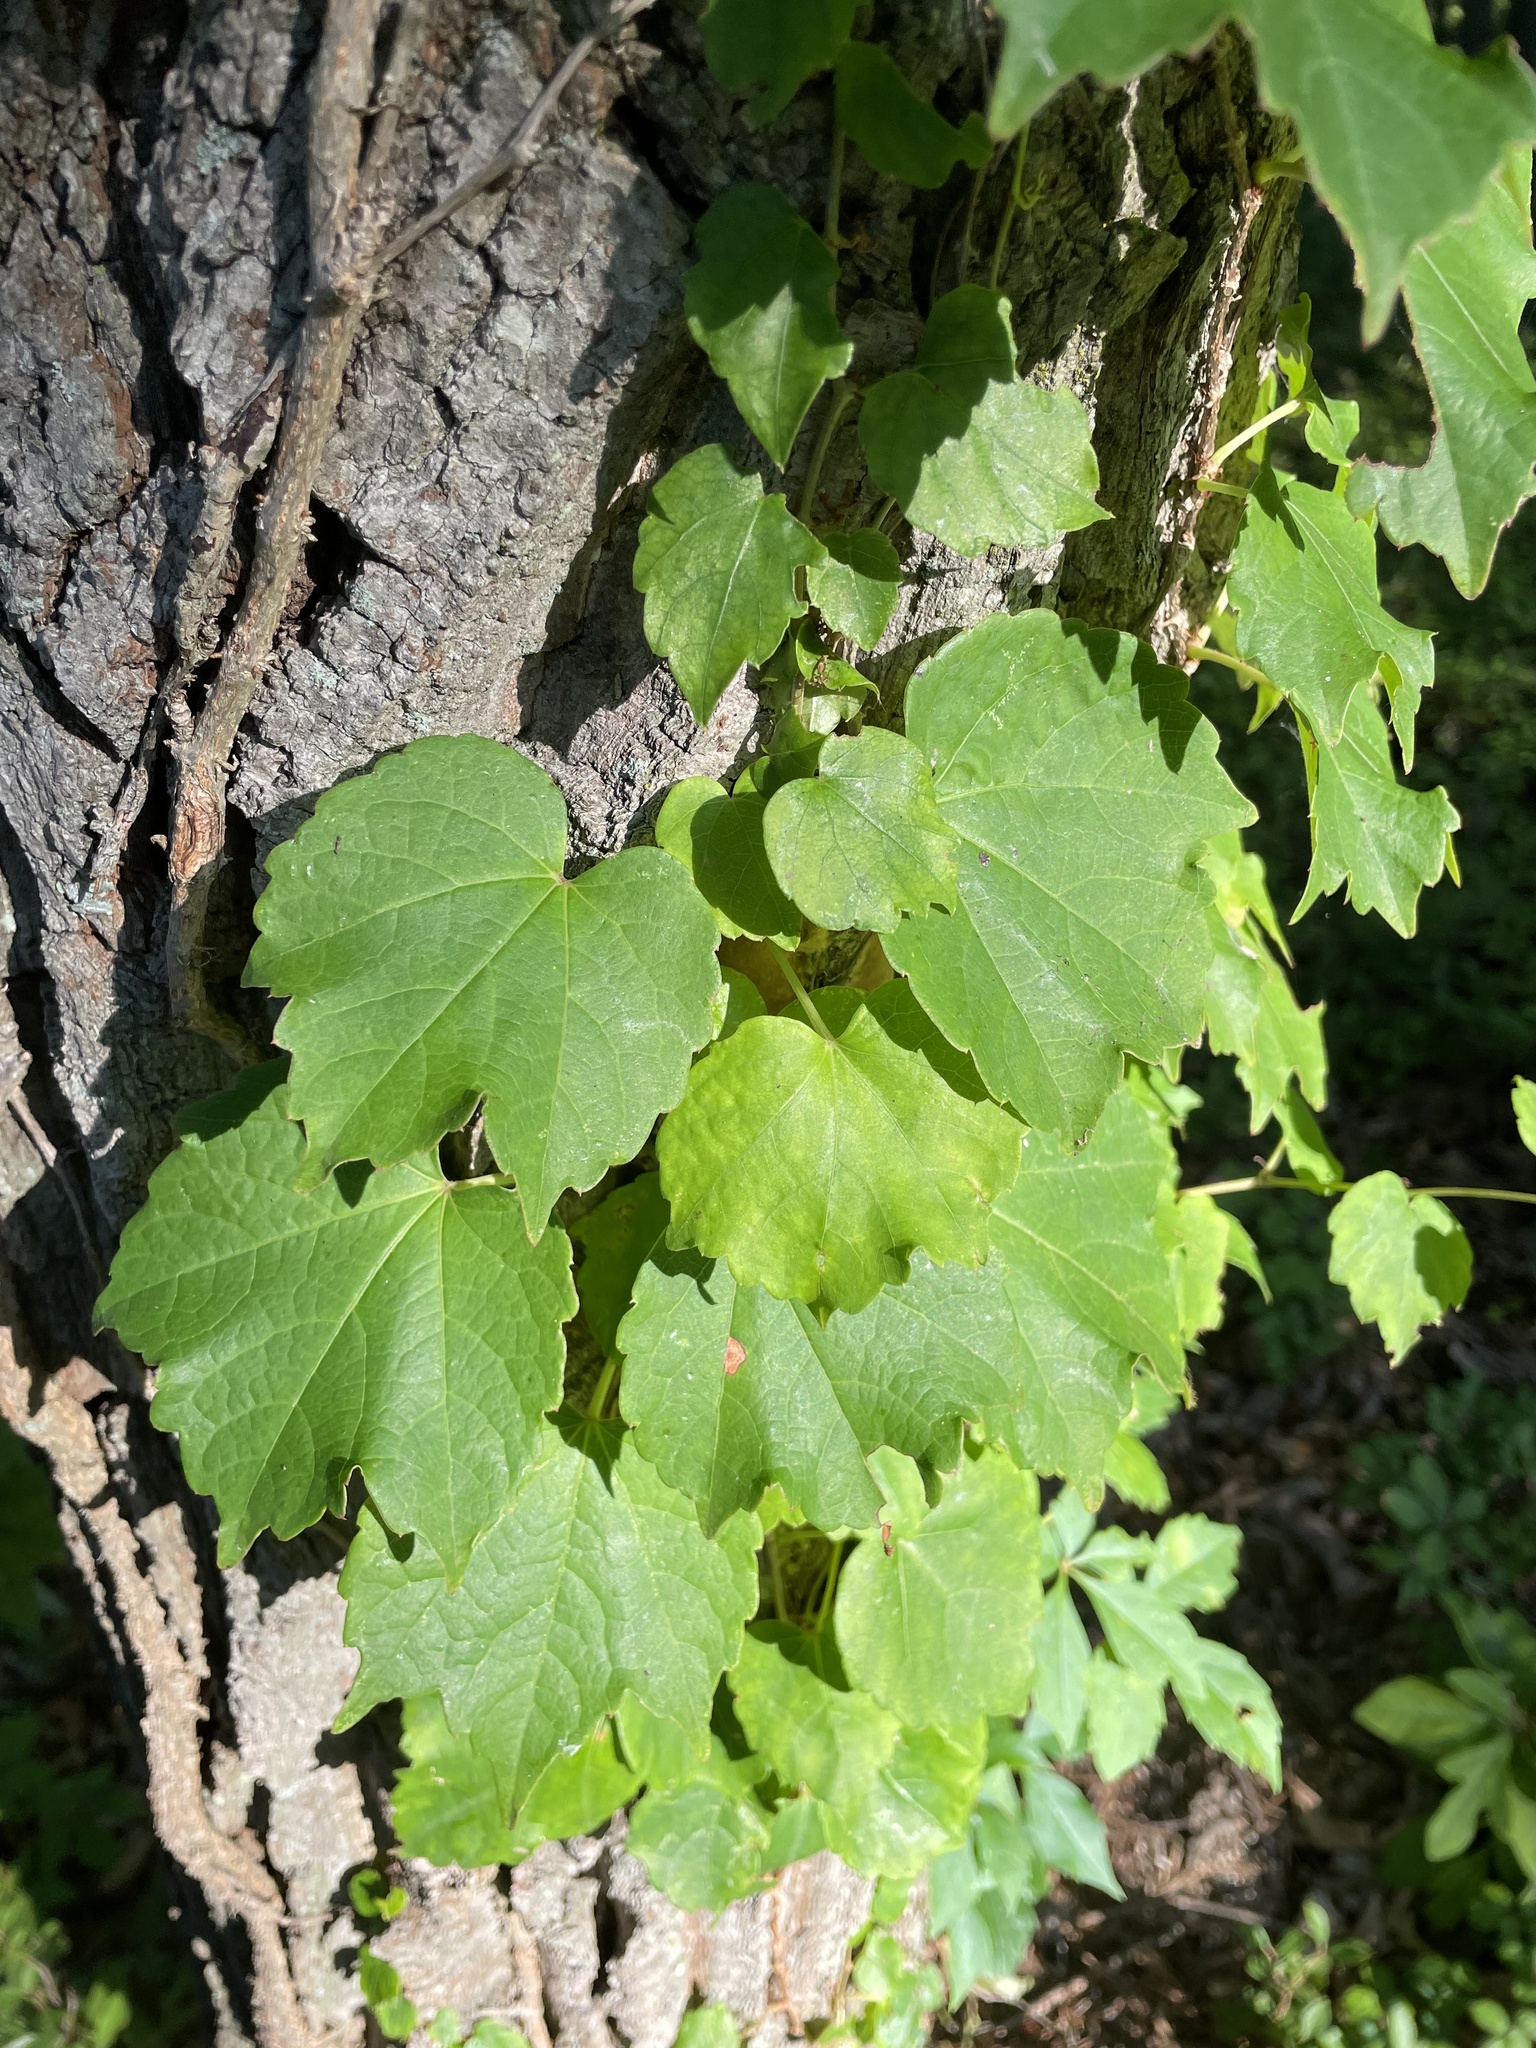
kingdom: Plantae
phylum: Tracheophyta
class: Magnoliopsida
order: Vitales
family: Vitaceae
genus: Parthenocissus
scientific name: Parthenocissus tricuspidata
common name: Boston ivy
